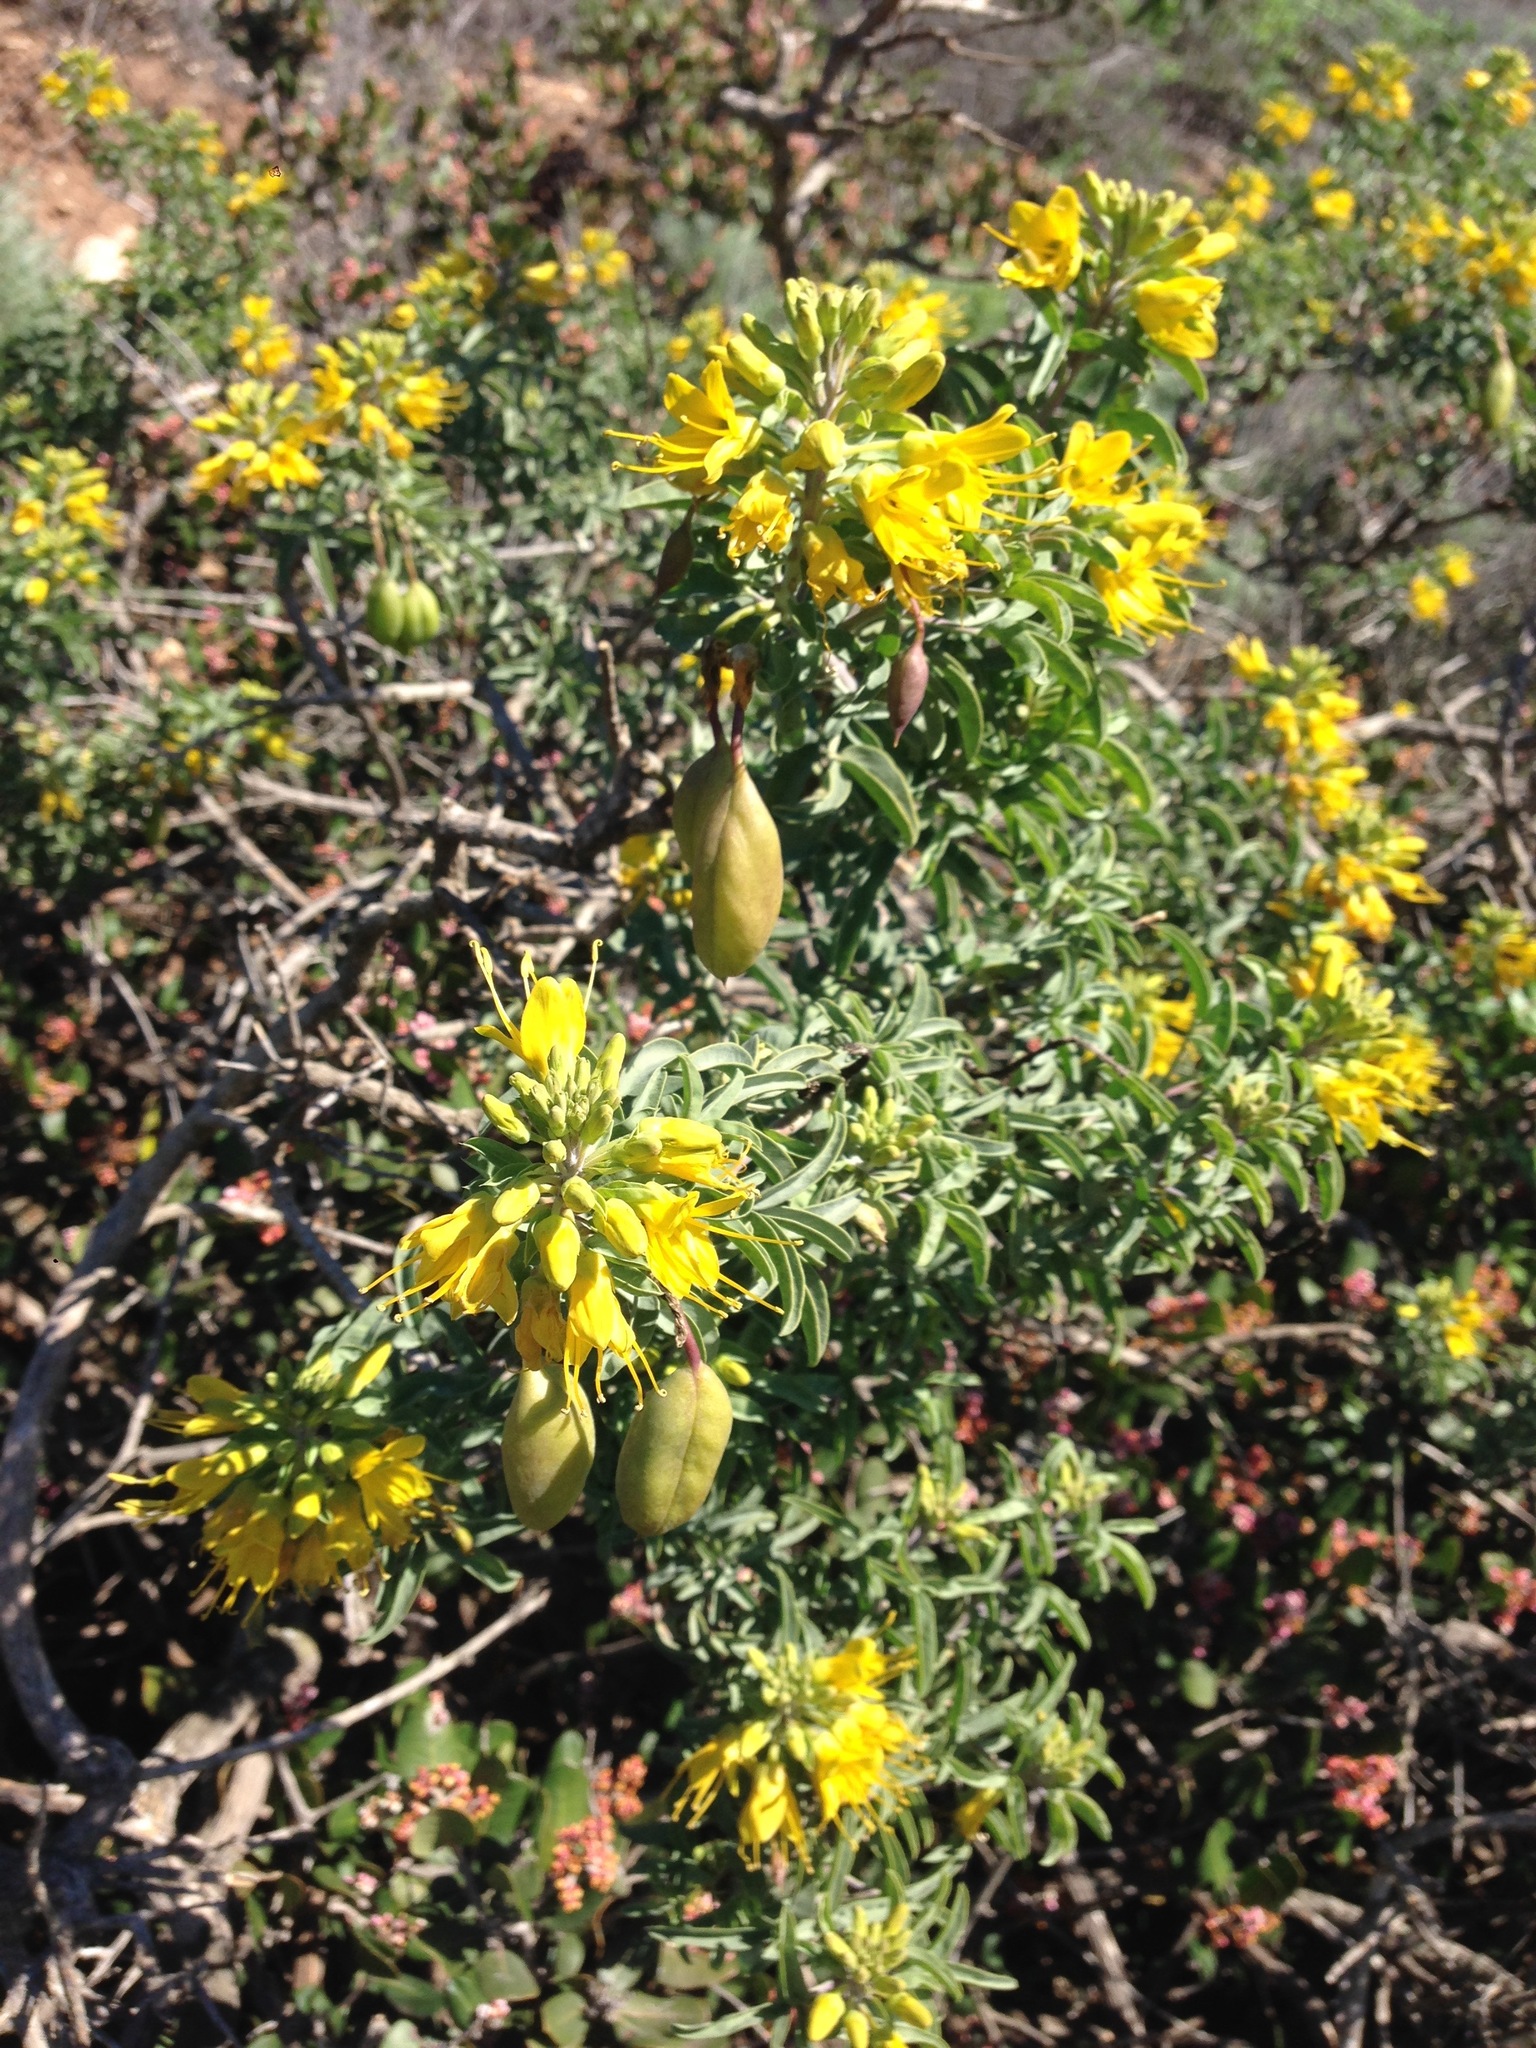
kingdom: Plantae
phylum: Tracheophyta
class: Magnoliopsida
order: Brassicales
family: Cleomaceae
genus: Cleomella
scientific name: Cleomella arborea
